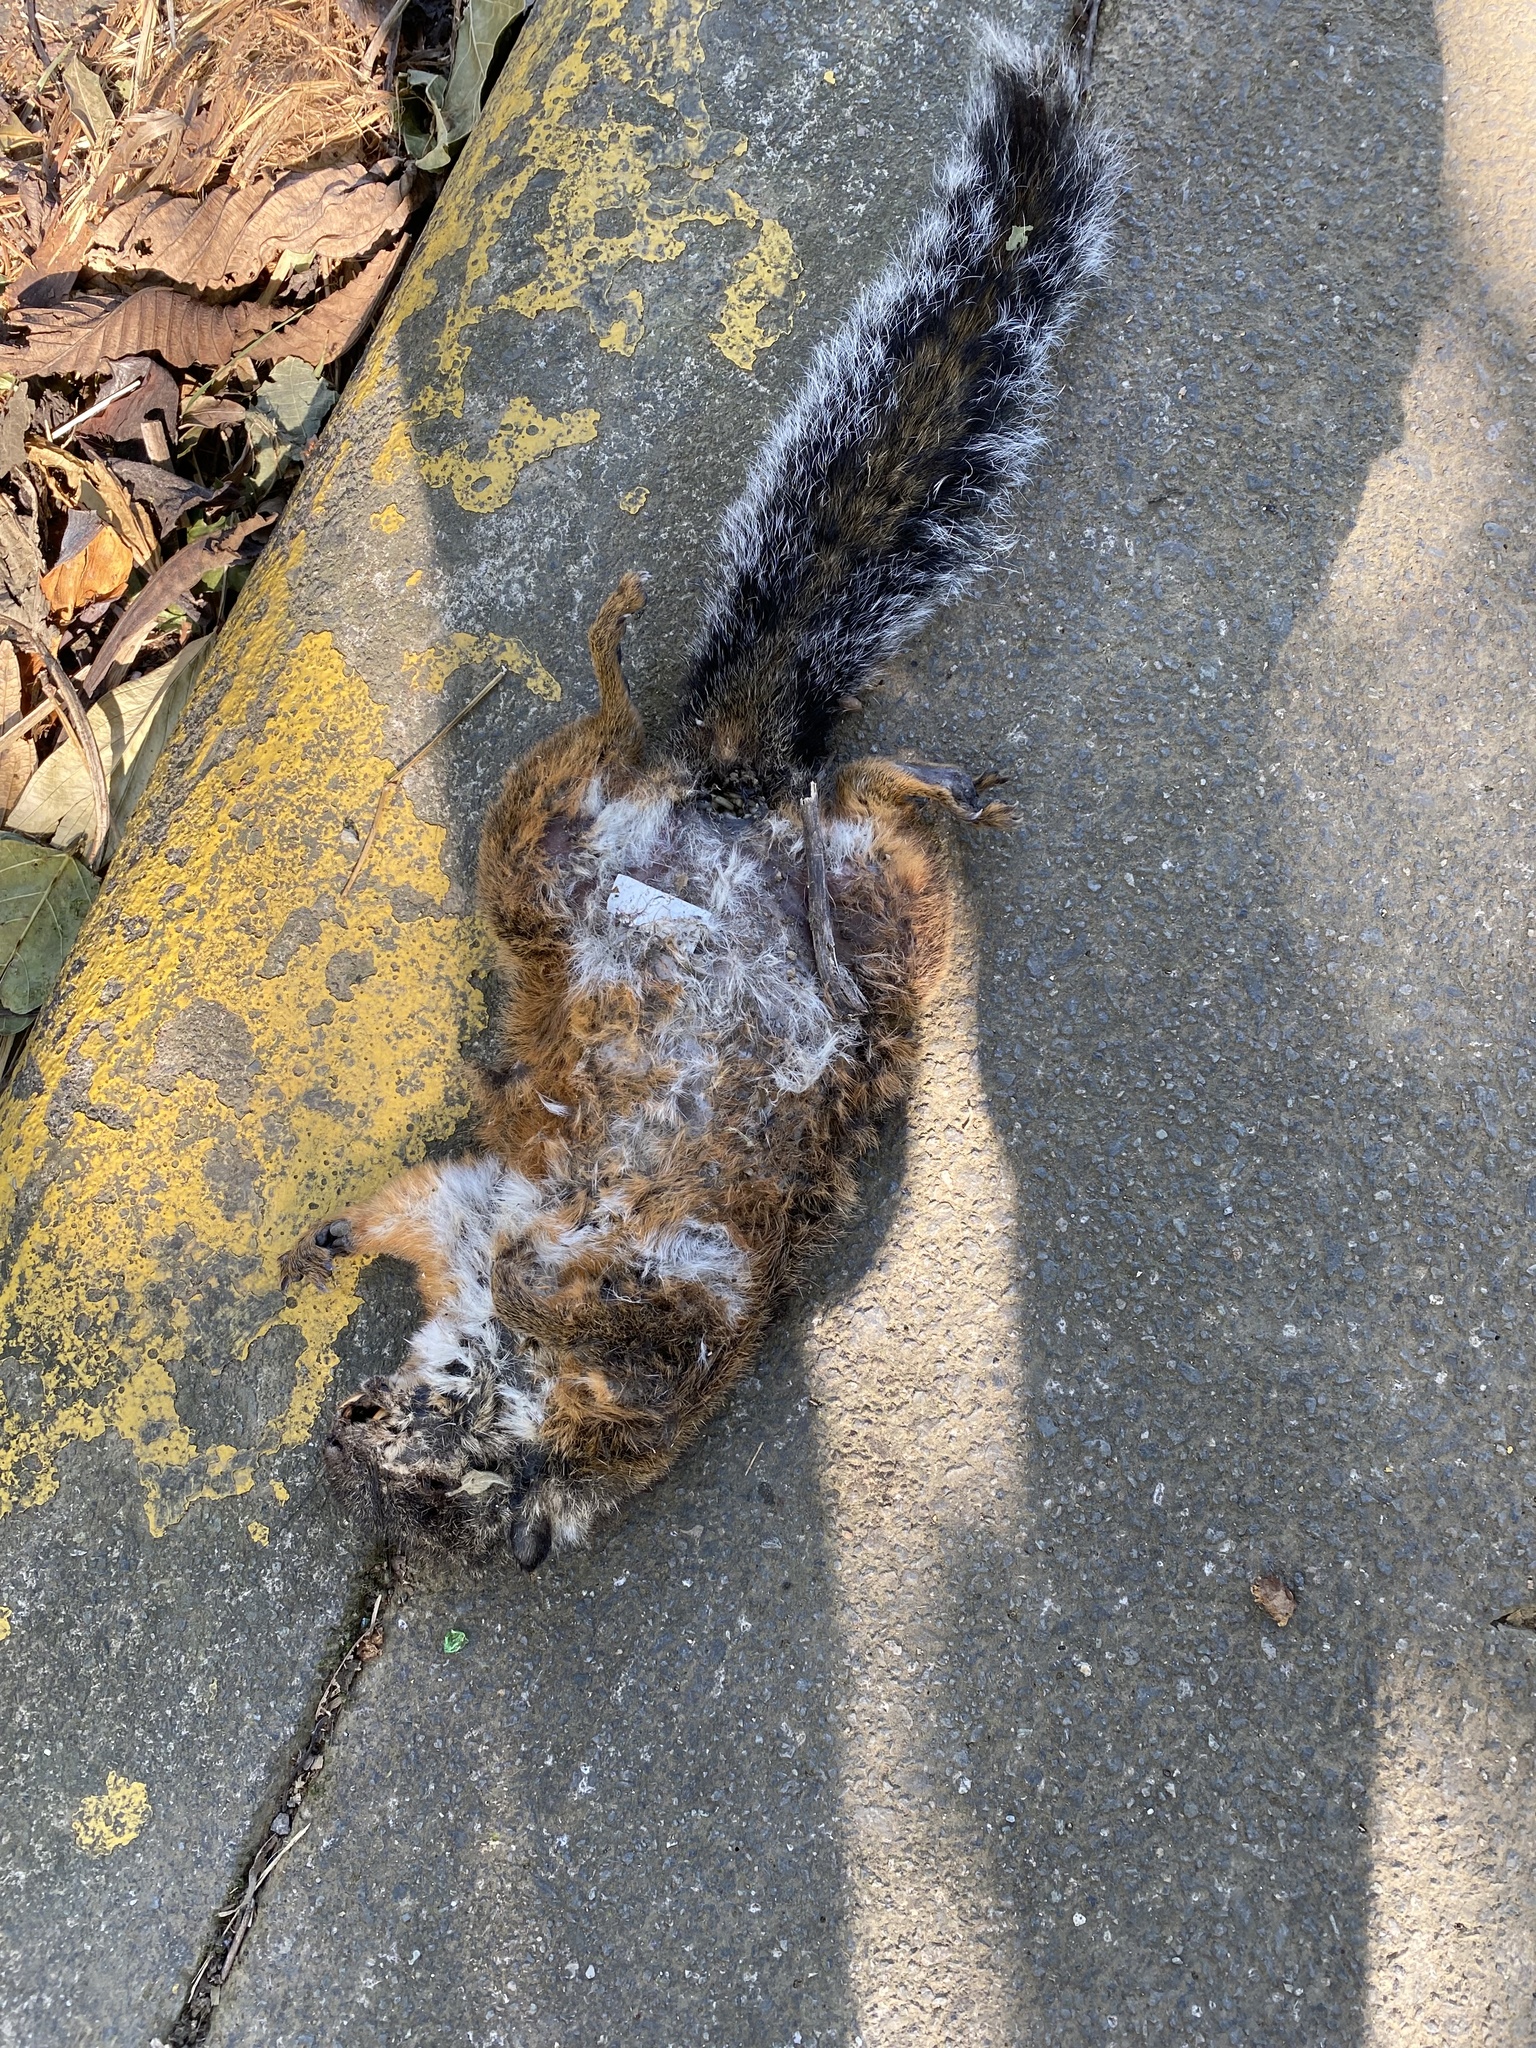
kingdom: Animalia
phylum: Chordata
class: Mammalia
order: Rodentia
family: Sciuridae
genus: Sciurus
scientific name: Sciurus variegatoides
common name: Variegated squirrel
